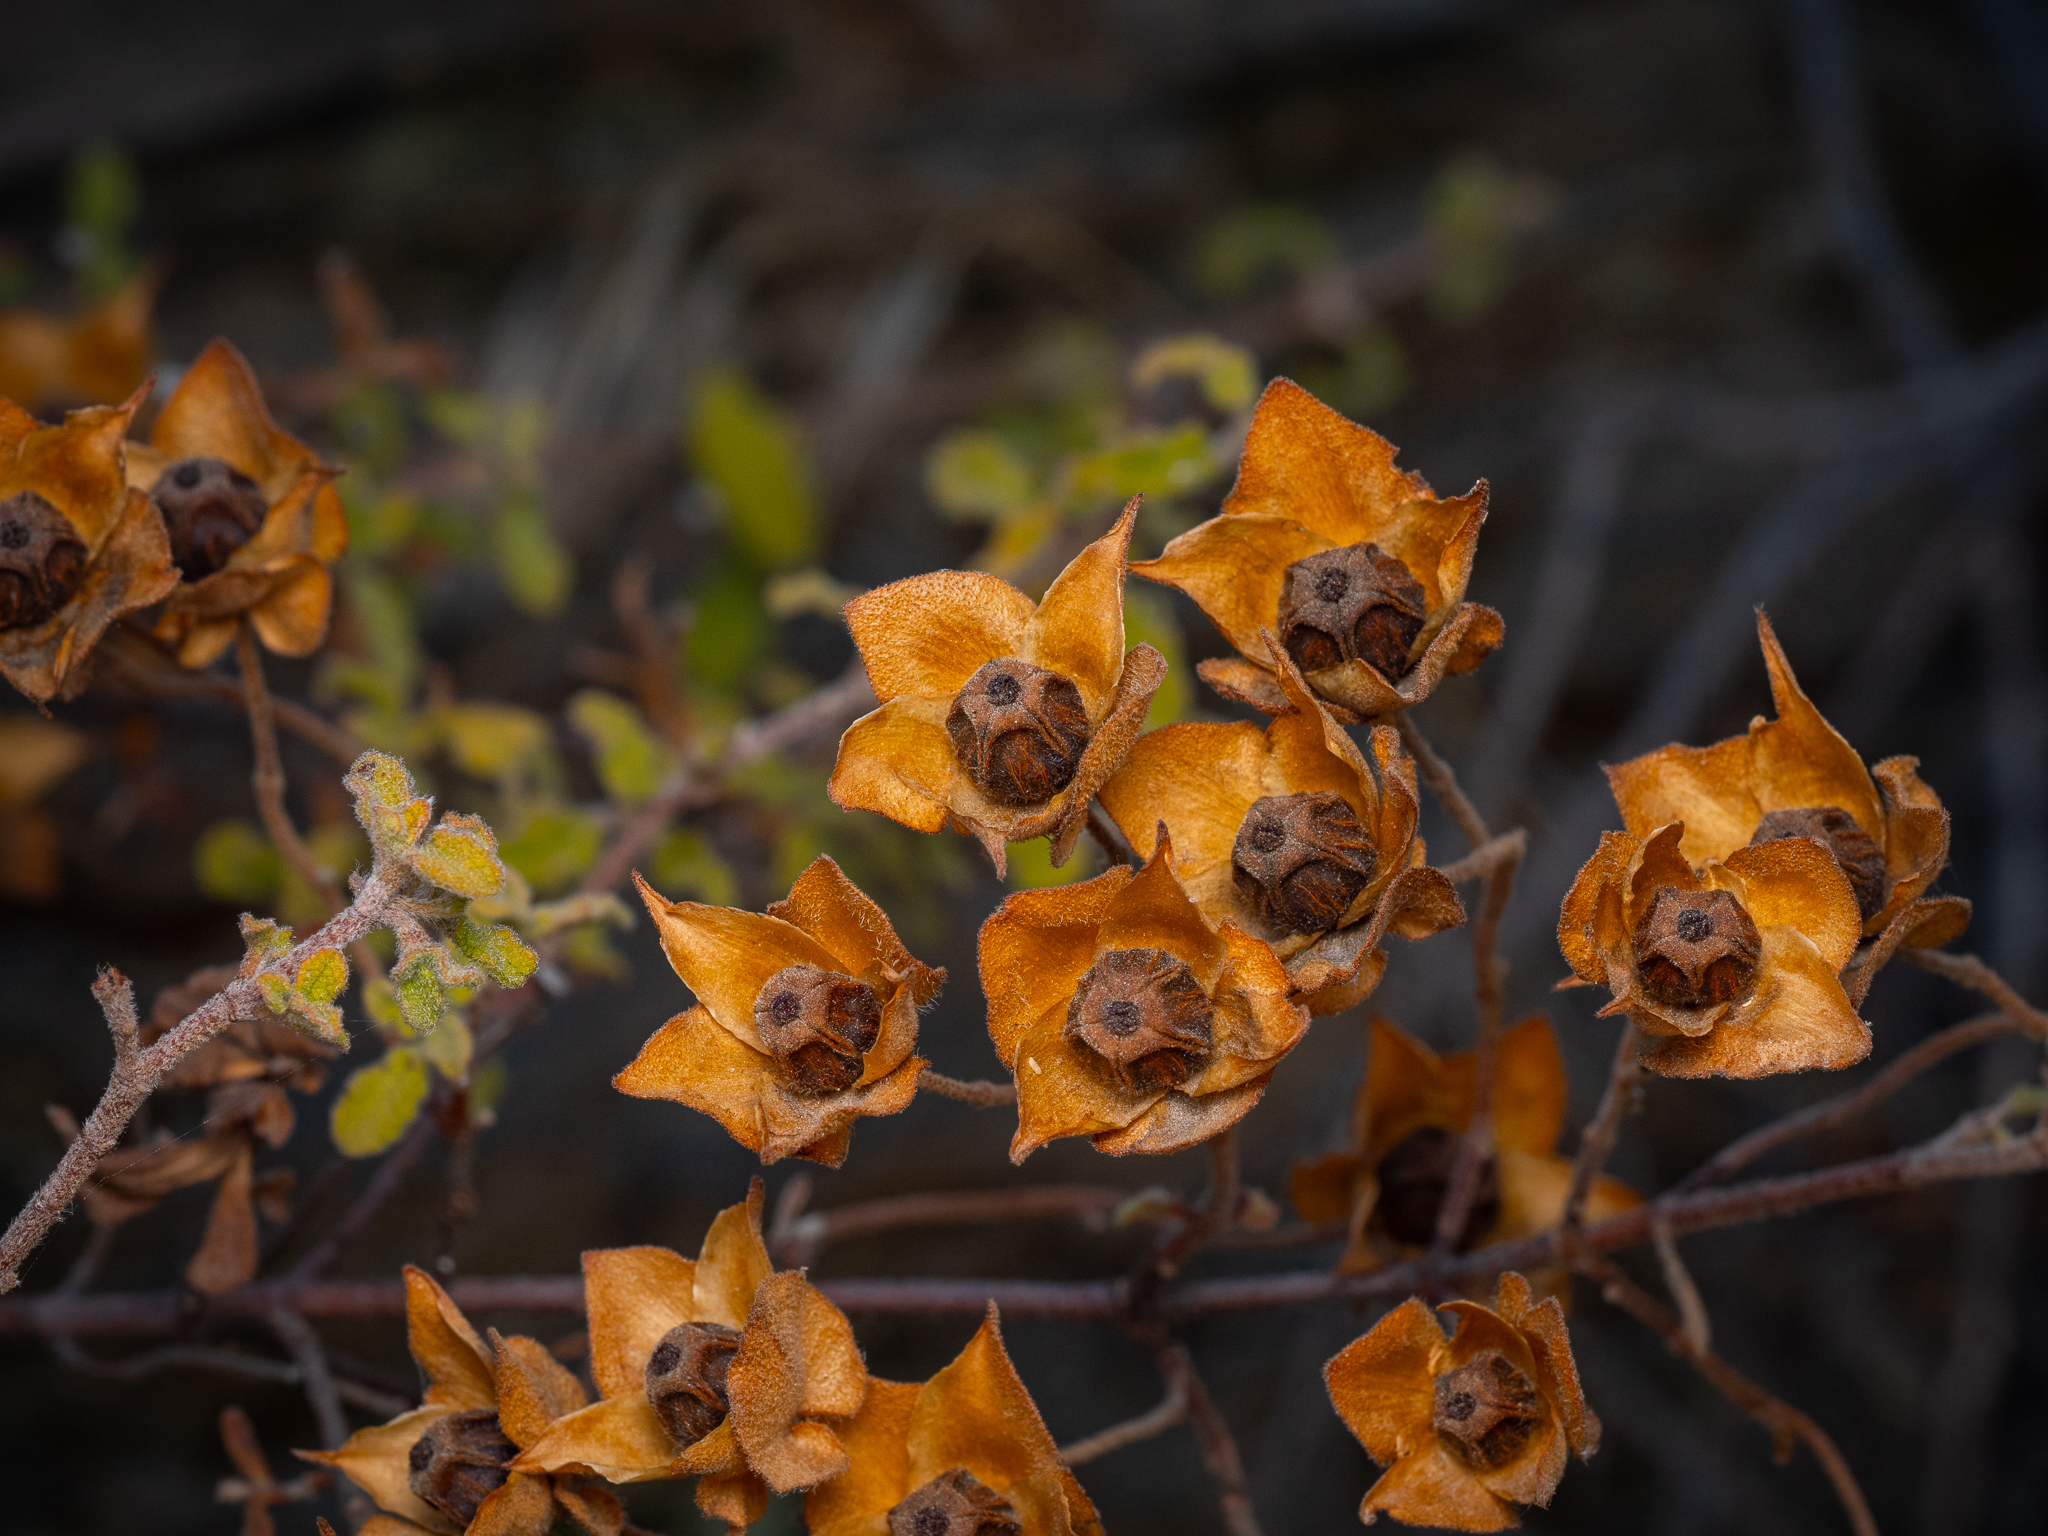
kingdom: Plantae
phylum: Tracheophyta
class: Magnoliopsida
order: Malvales
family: Cistaceae
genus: Cistus
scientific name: Cistus salviifolius
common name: Salvia cistus
